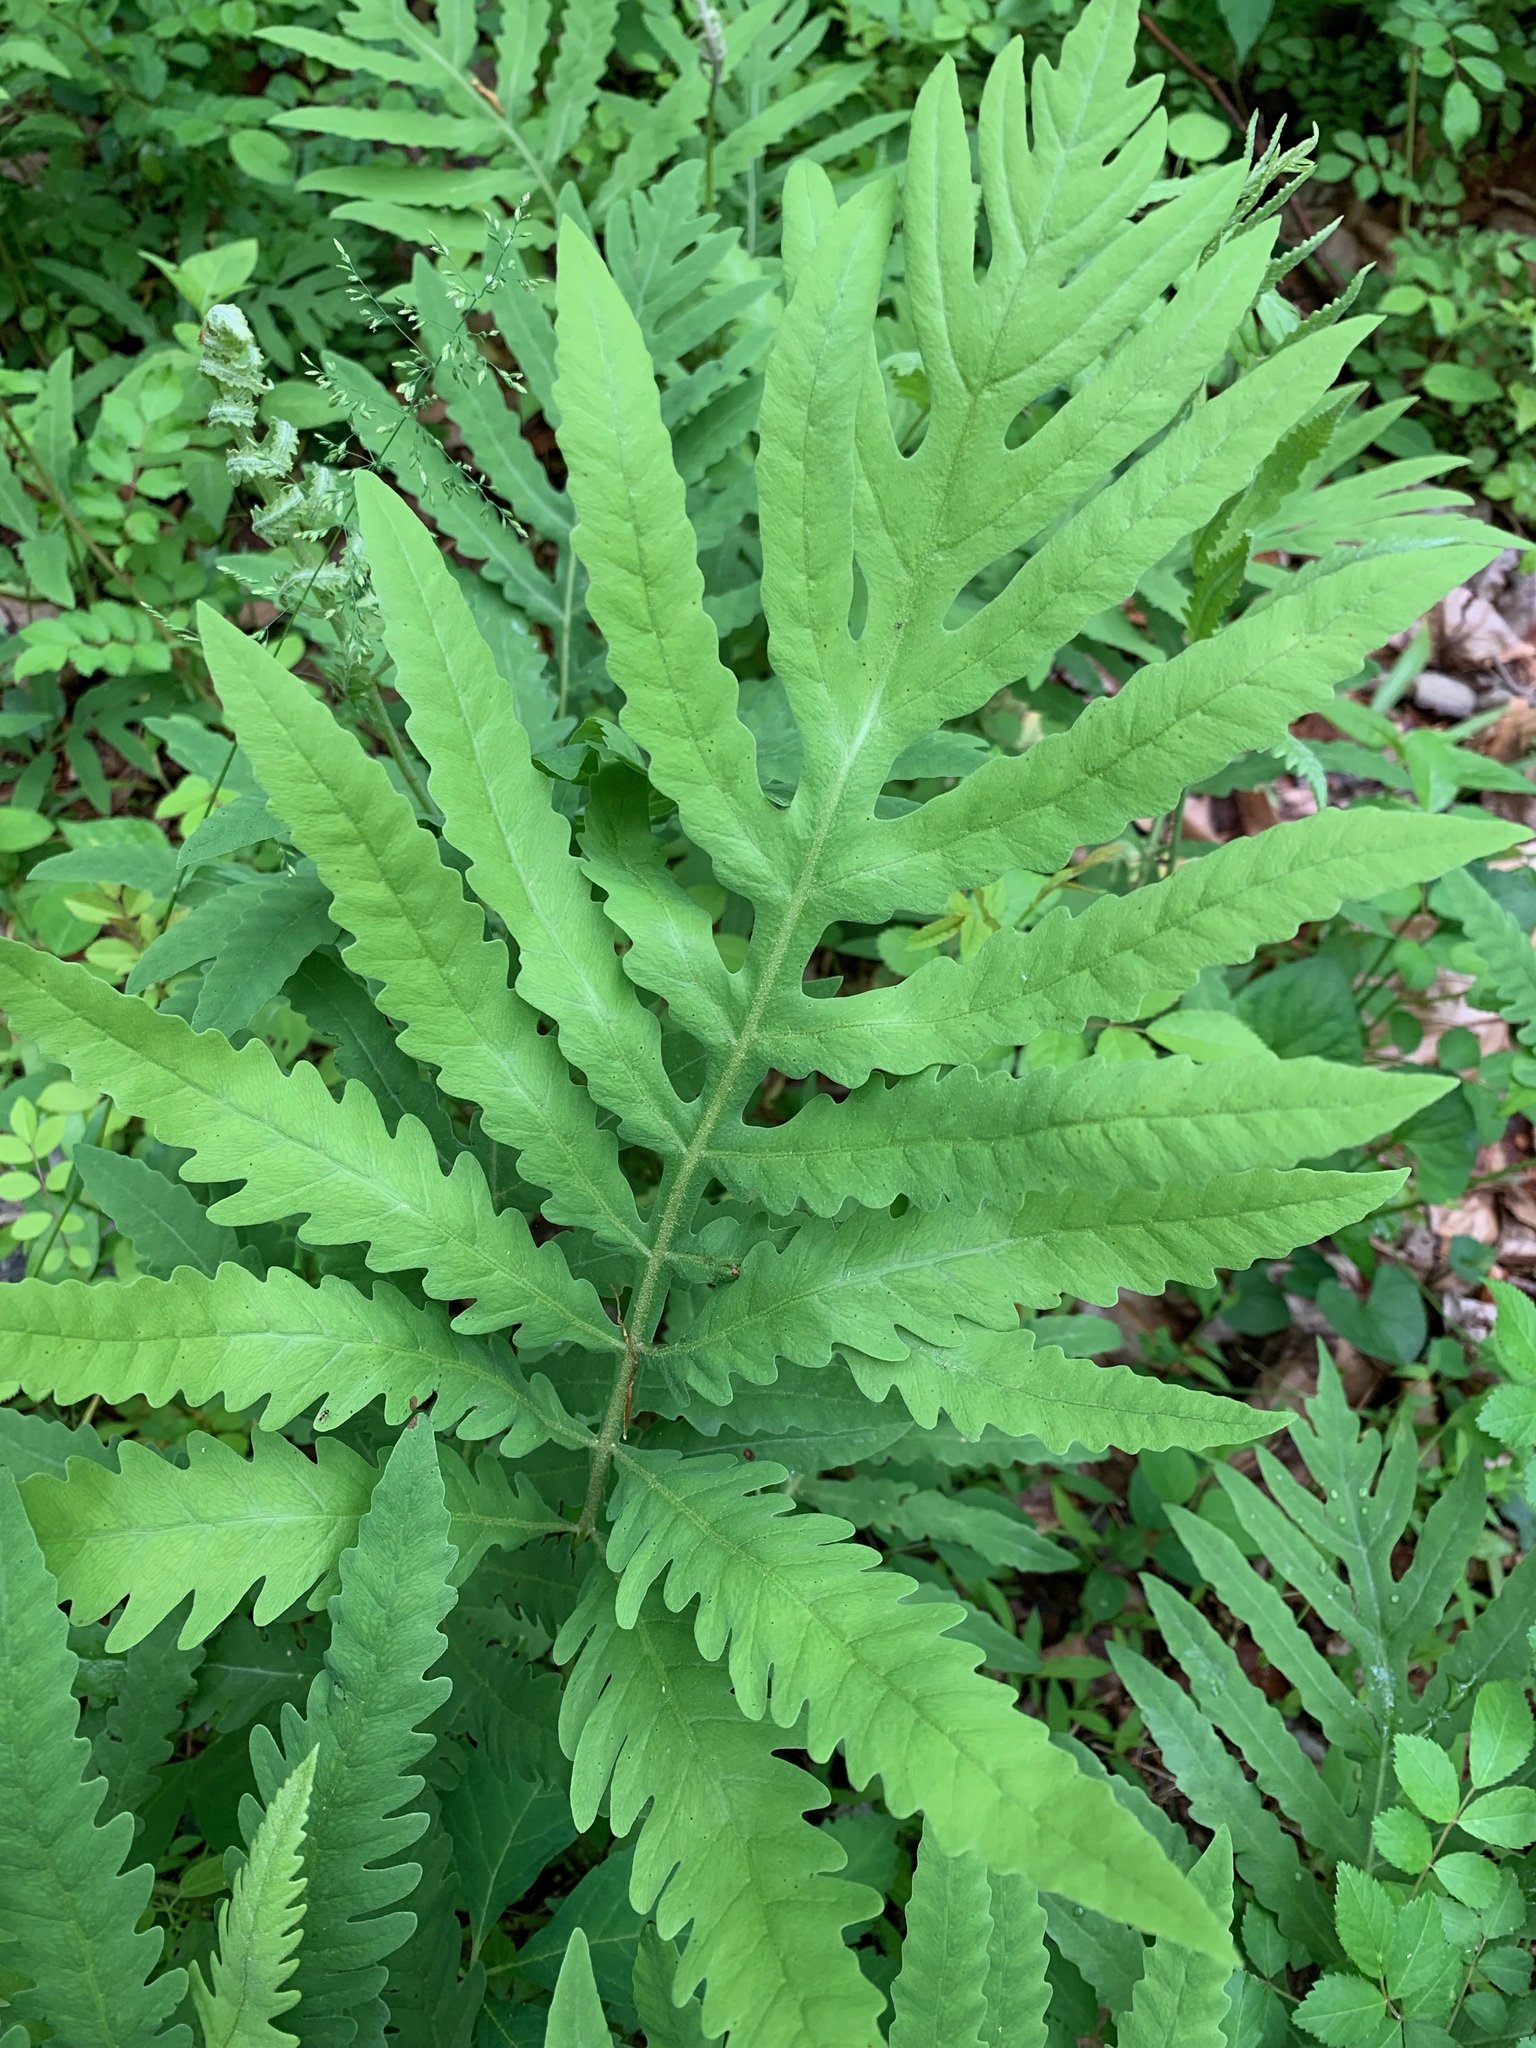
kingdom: Plantae
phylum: Tracheophyta
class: Polypodiopsida
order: Polypodiales
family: Onocleaceae
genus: Onoclea
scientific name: Onoclea sensibilis
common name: Sensitive fern
